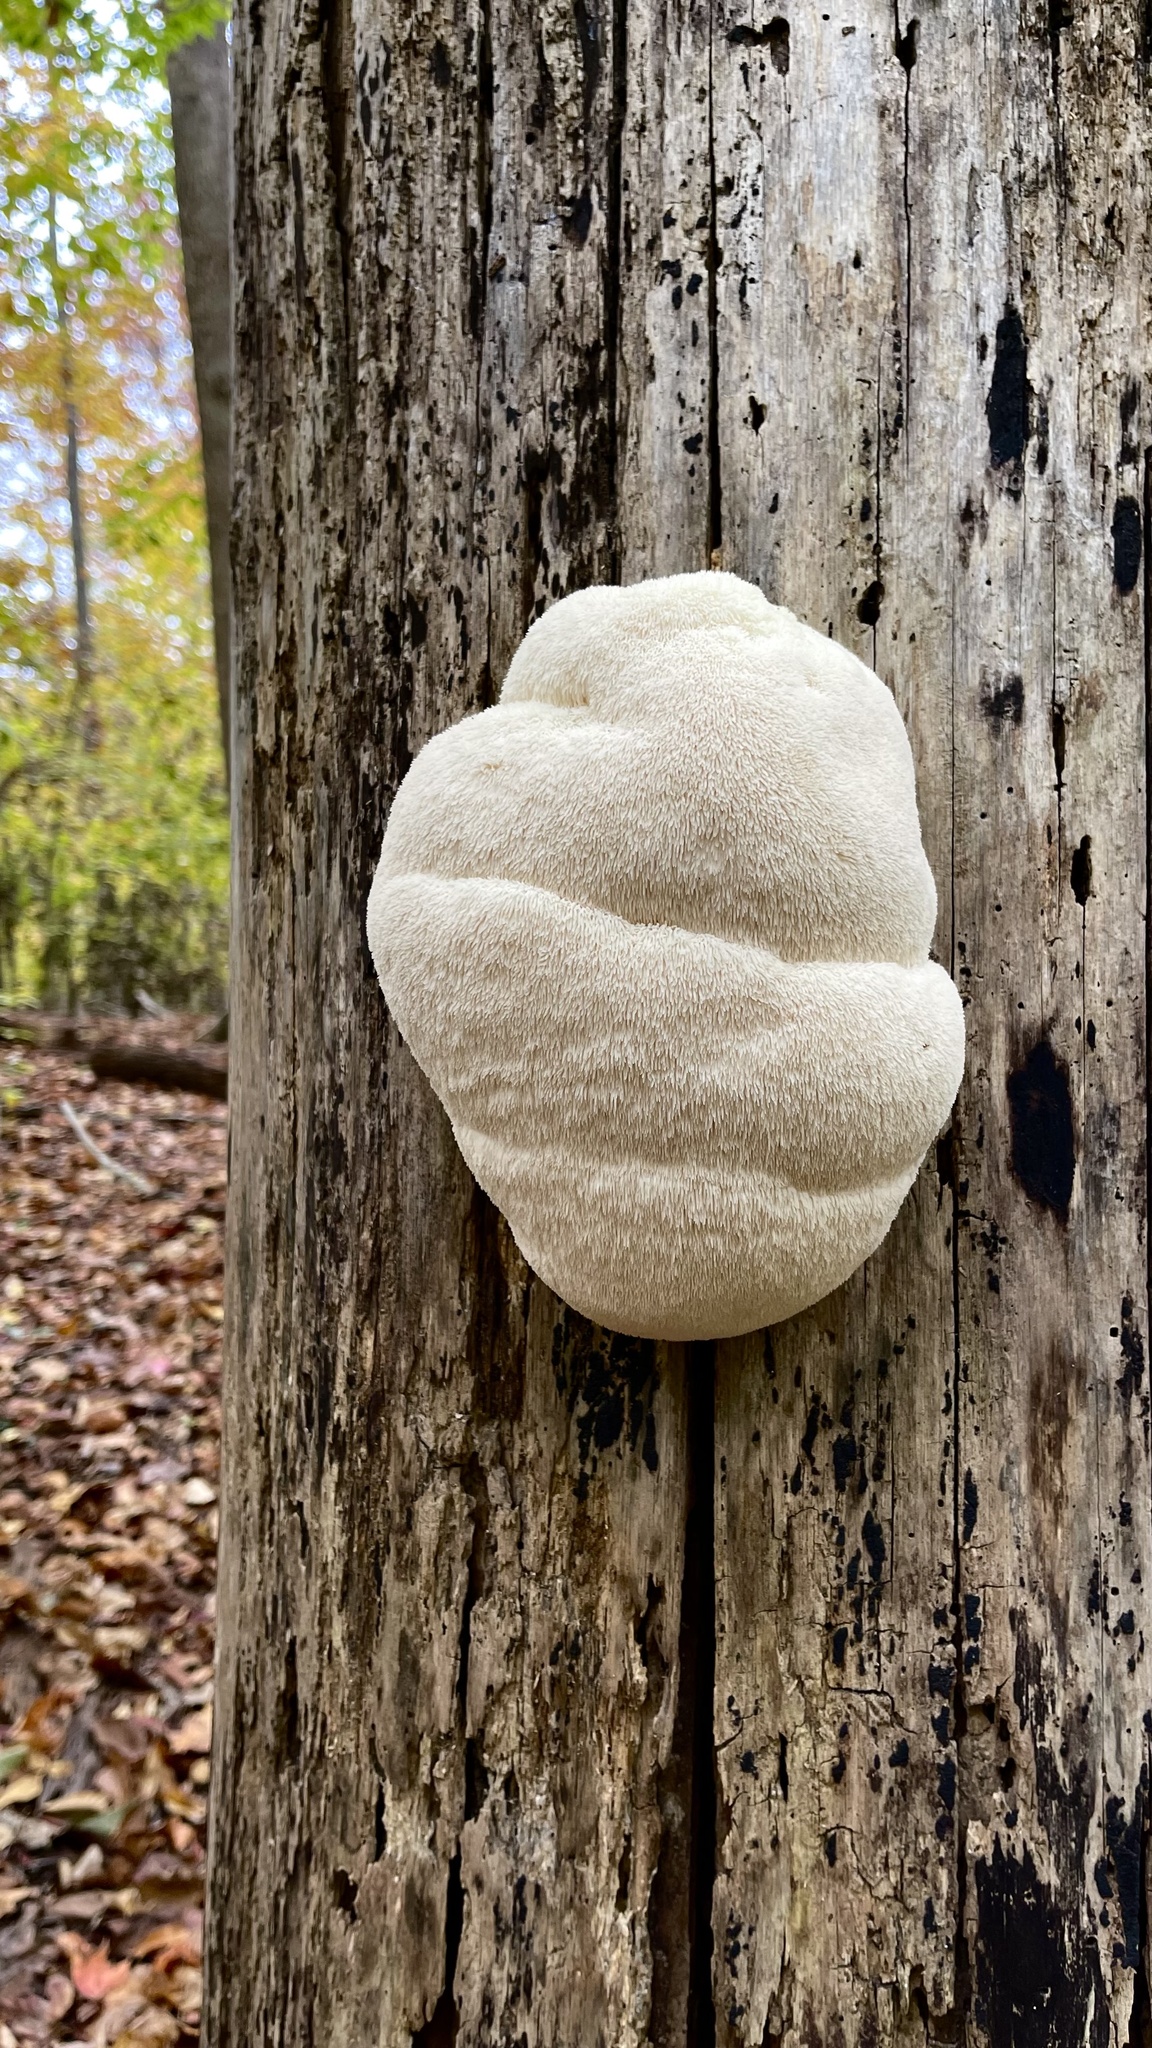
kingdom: Fungi
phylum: Basidiomycota
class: Agaricomycetes
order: Russulales
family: Hericiaceae
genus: Hericium
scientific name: Hericium erinaceus
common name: Bearded tooth
